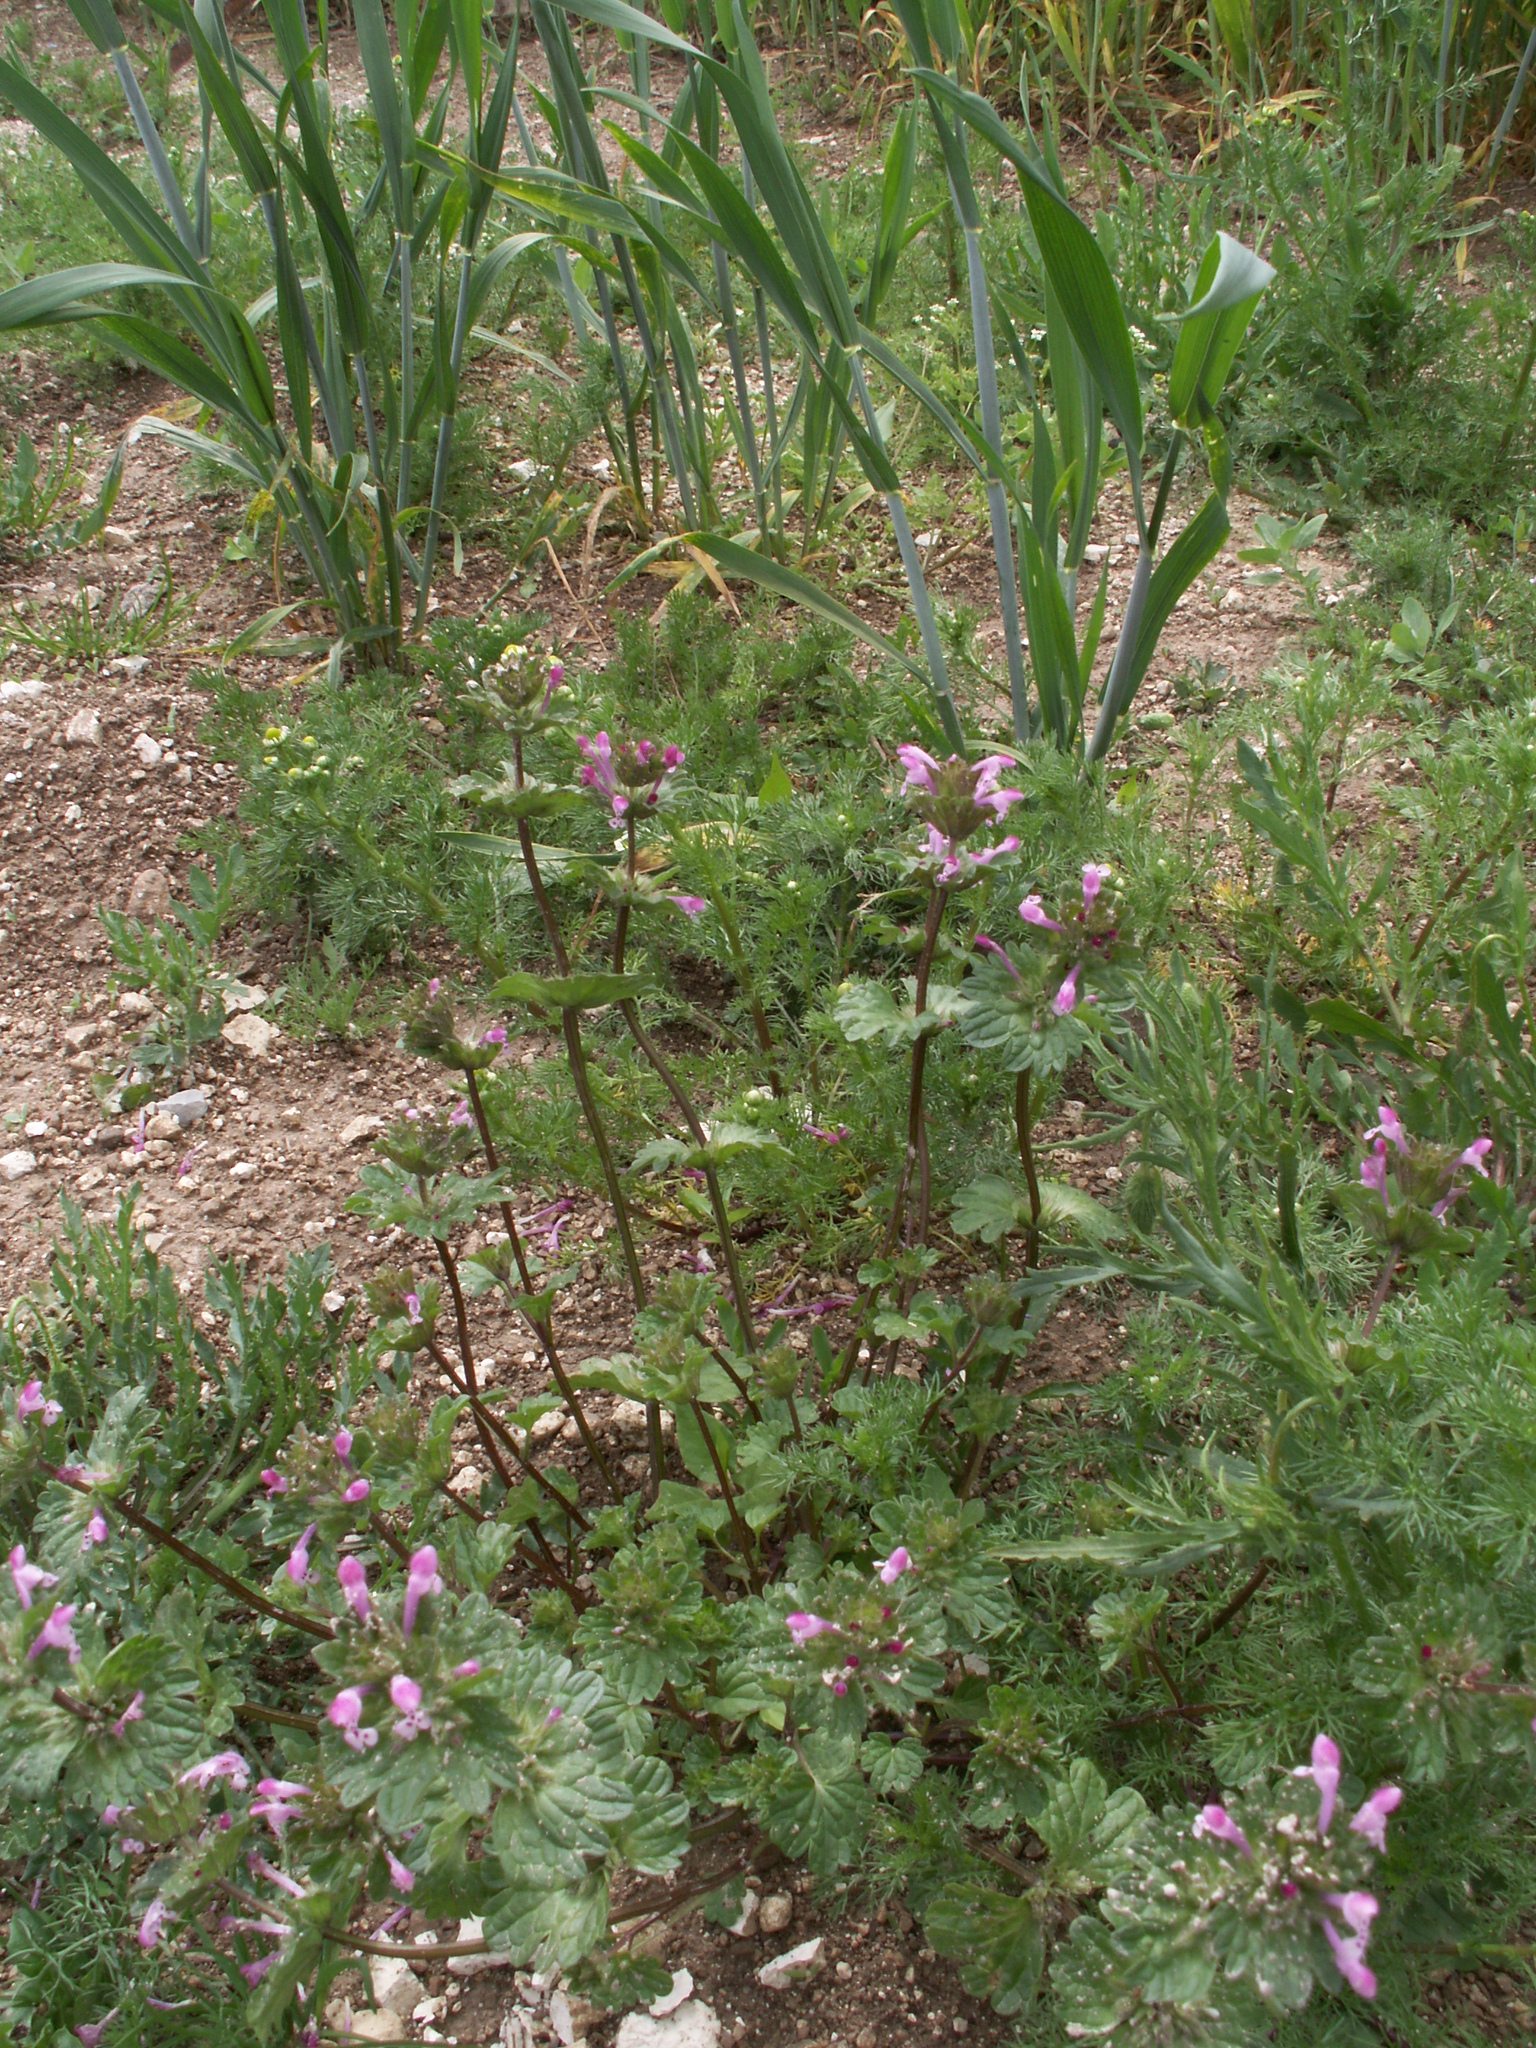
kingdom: Plantae
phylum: Tracheophyta
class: Magnoliopsida
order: Lamiales
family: Lamiaceae
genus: Lamium
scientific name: Lamium amplexicaule
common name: Henbit dead-nettle
